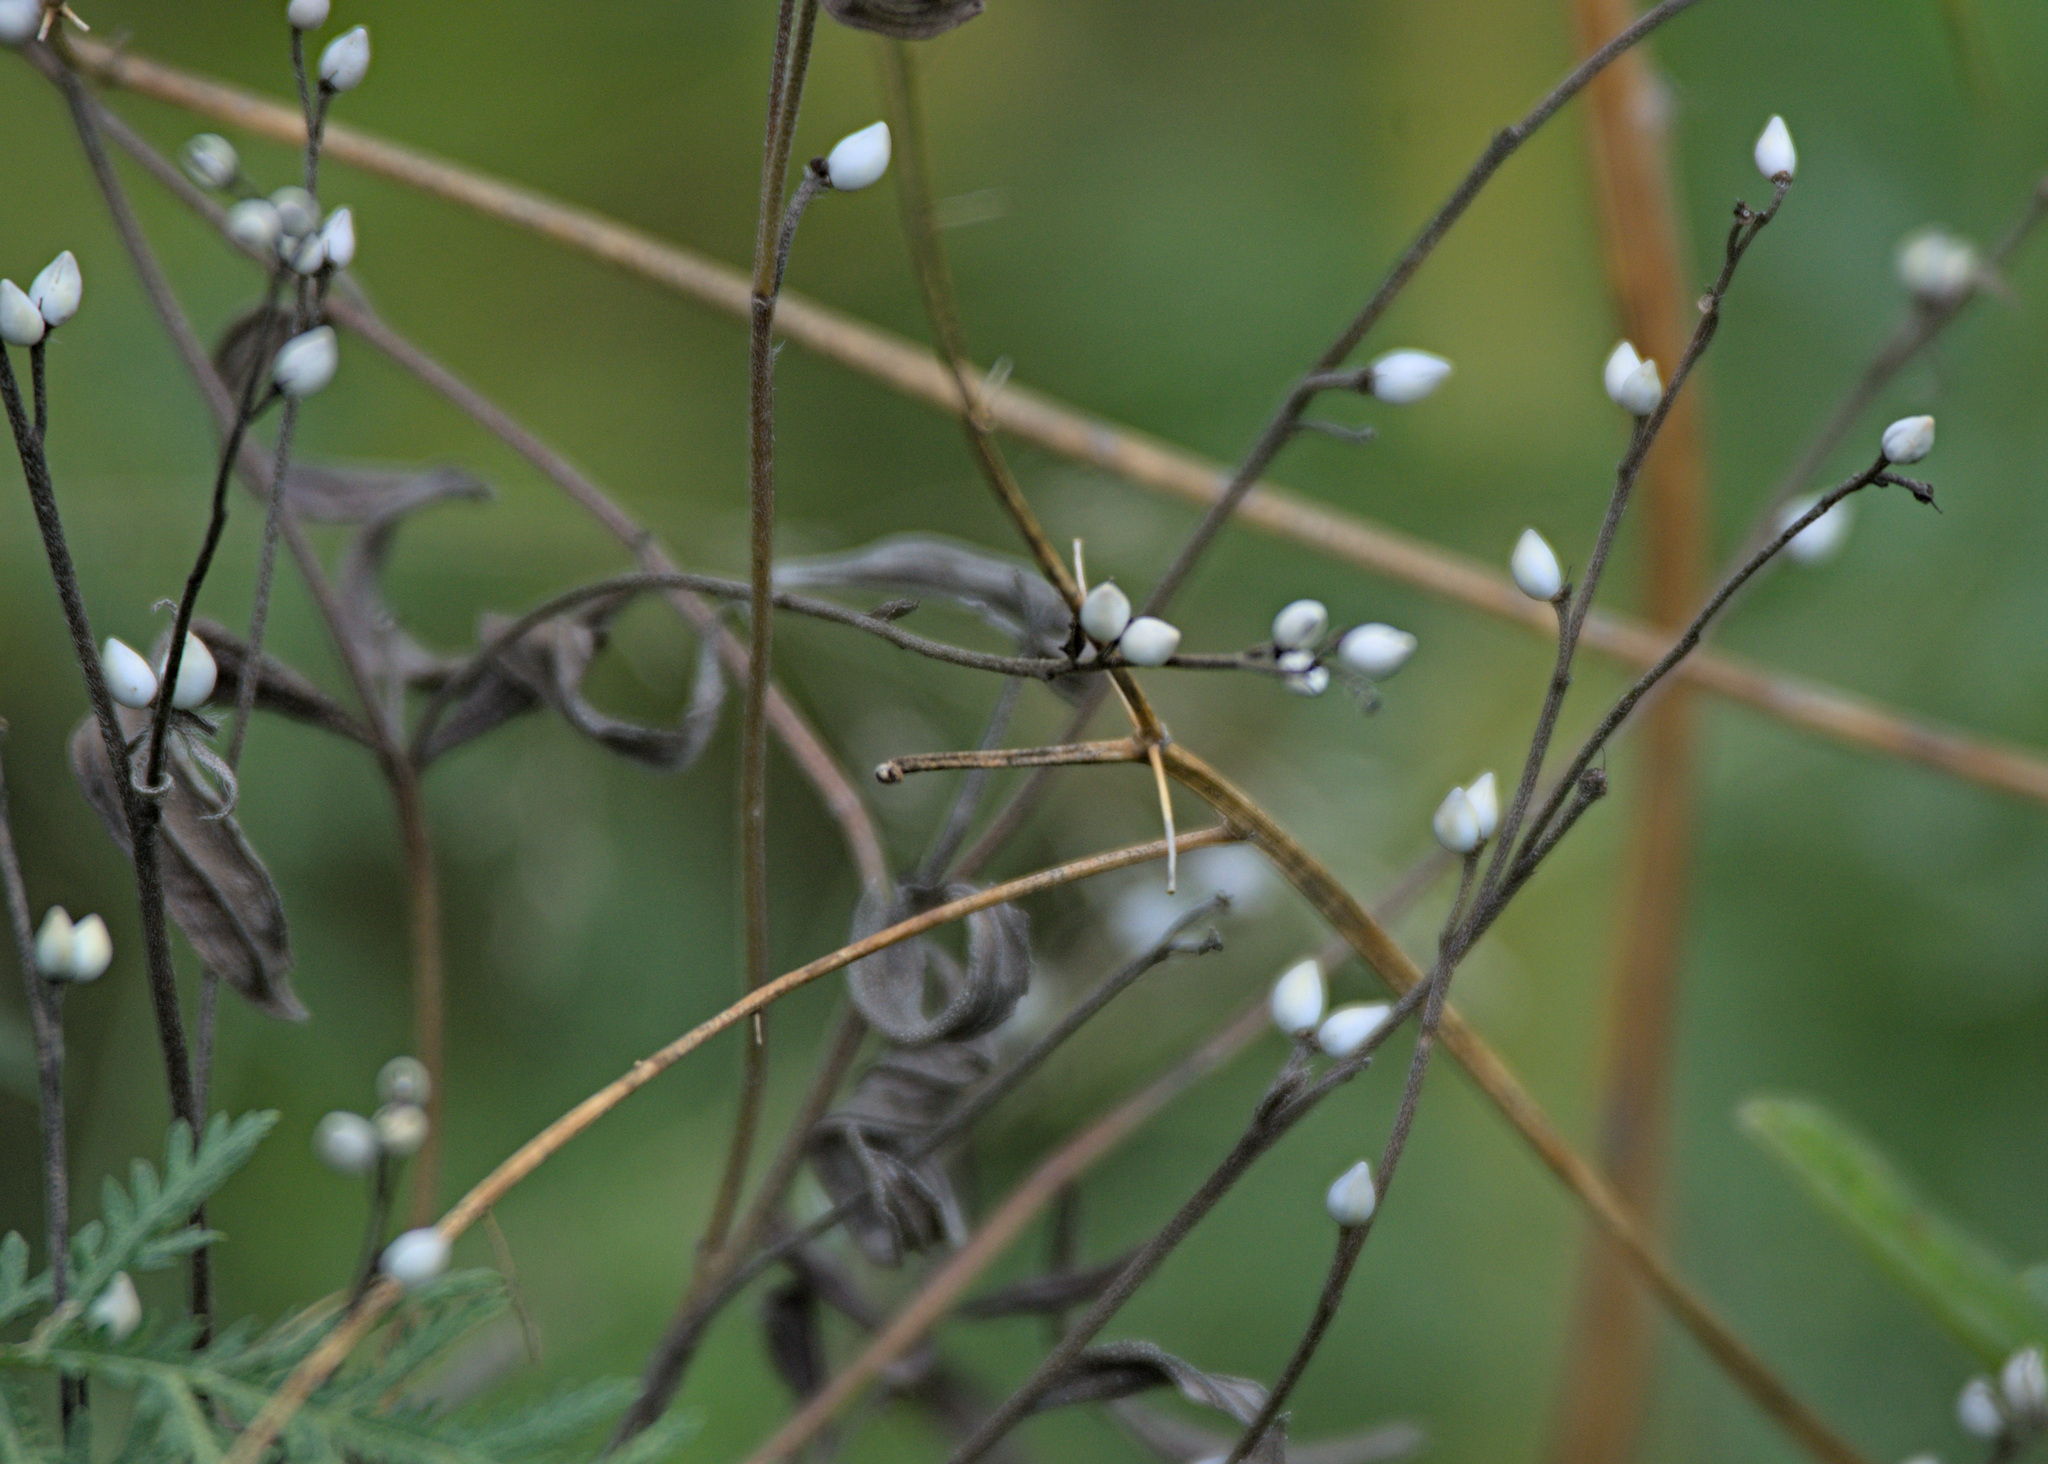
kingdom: Plantae
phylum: Tracheophyta
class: Magnoliopsida
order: Boraginales
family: Boraginaceae
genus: Lithospermum
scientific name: Lithospermum officinale
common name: Common gromwell
